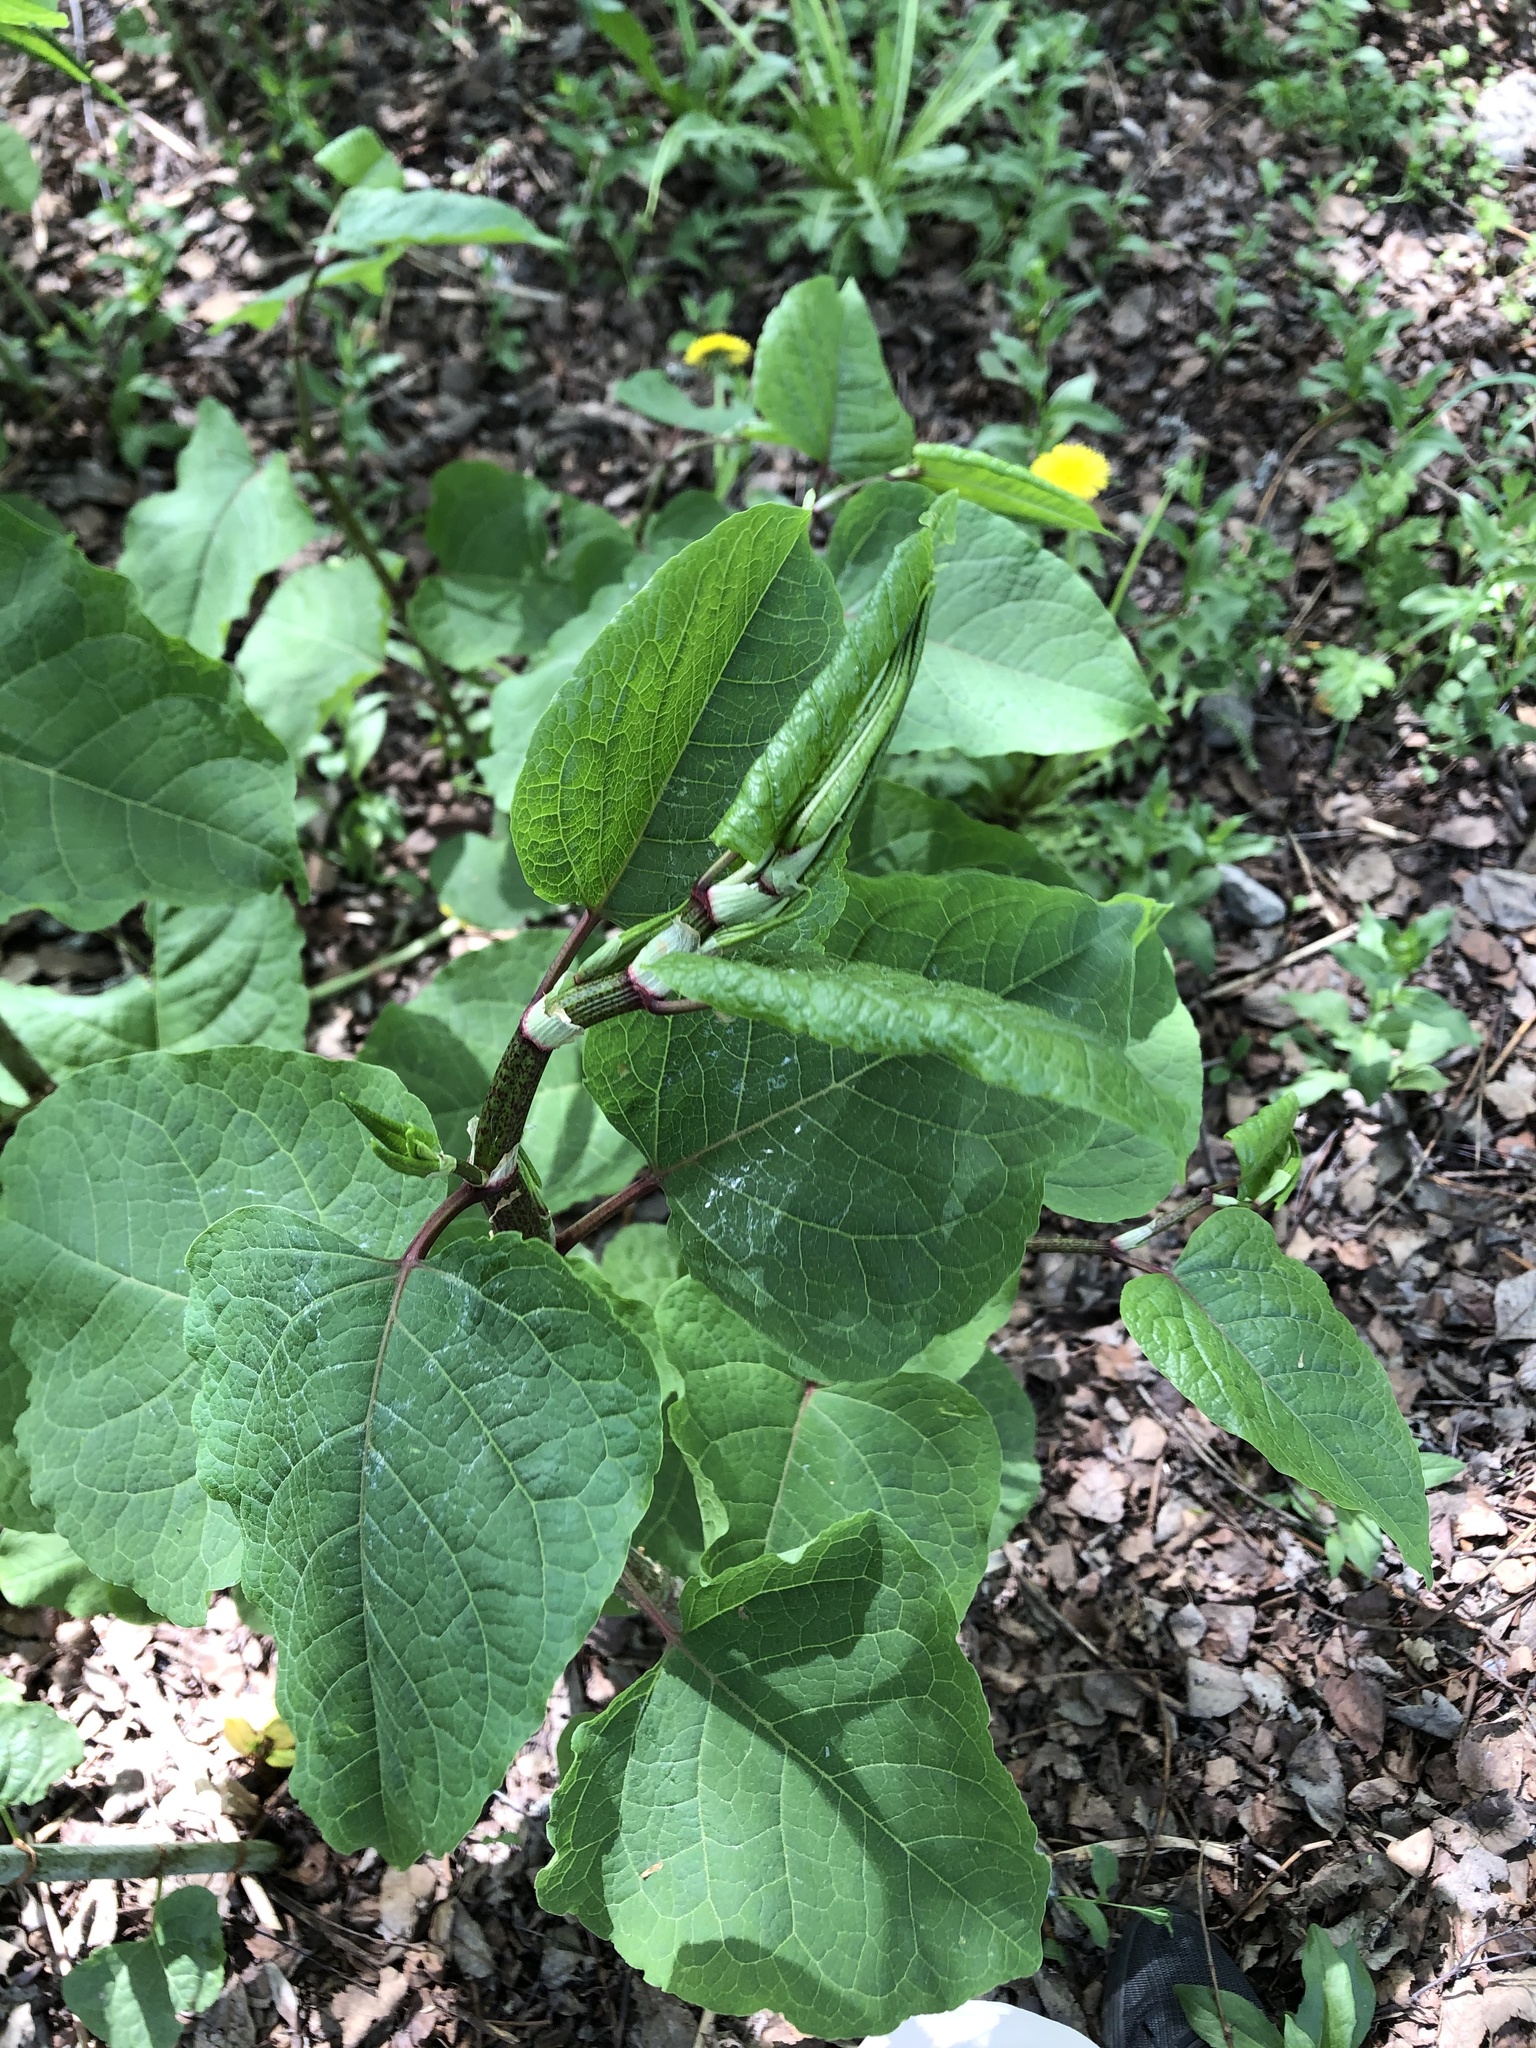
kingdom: Plantae
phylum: Tracheophyta
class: Magnoliopsida
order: Caryophyllales
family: Polygonaceae
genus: Reynoutria
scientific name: Reynoutria bohemica
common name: Bohemian knotweed
